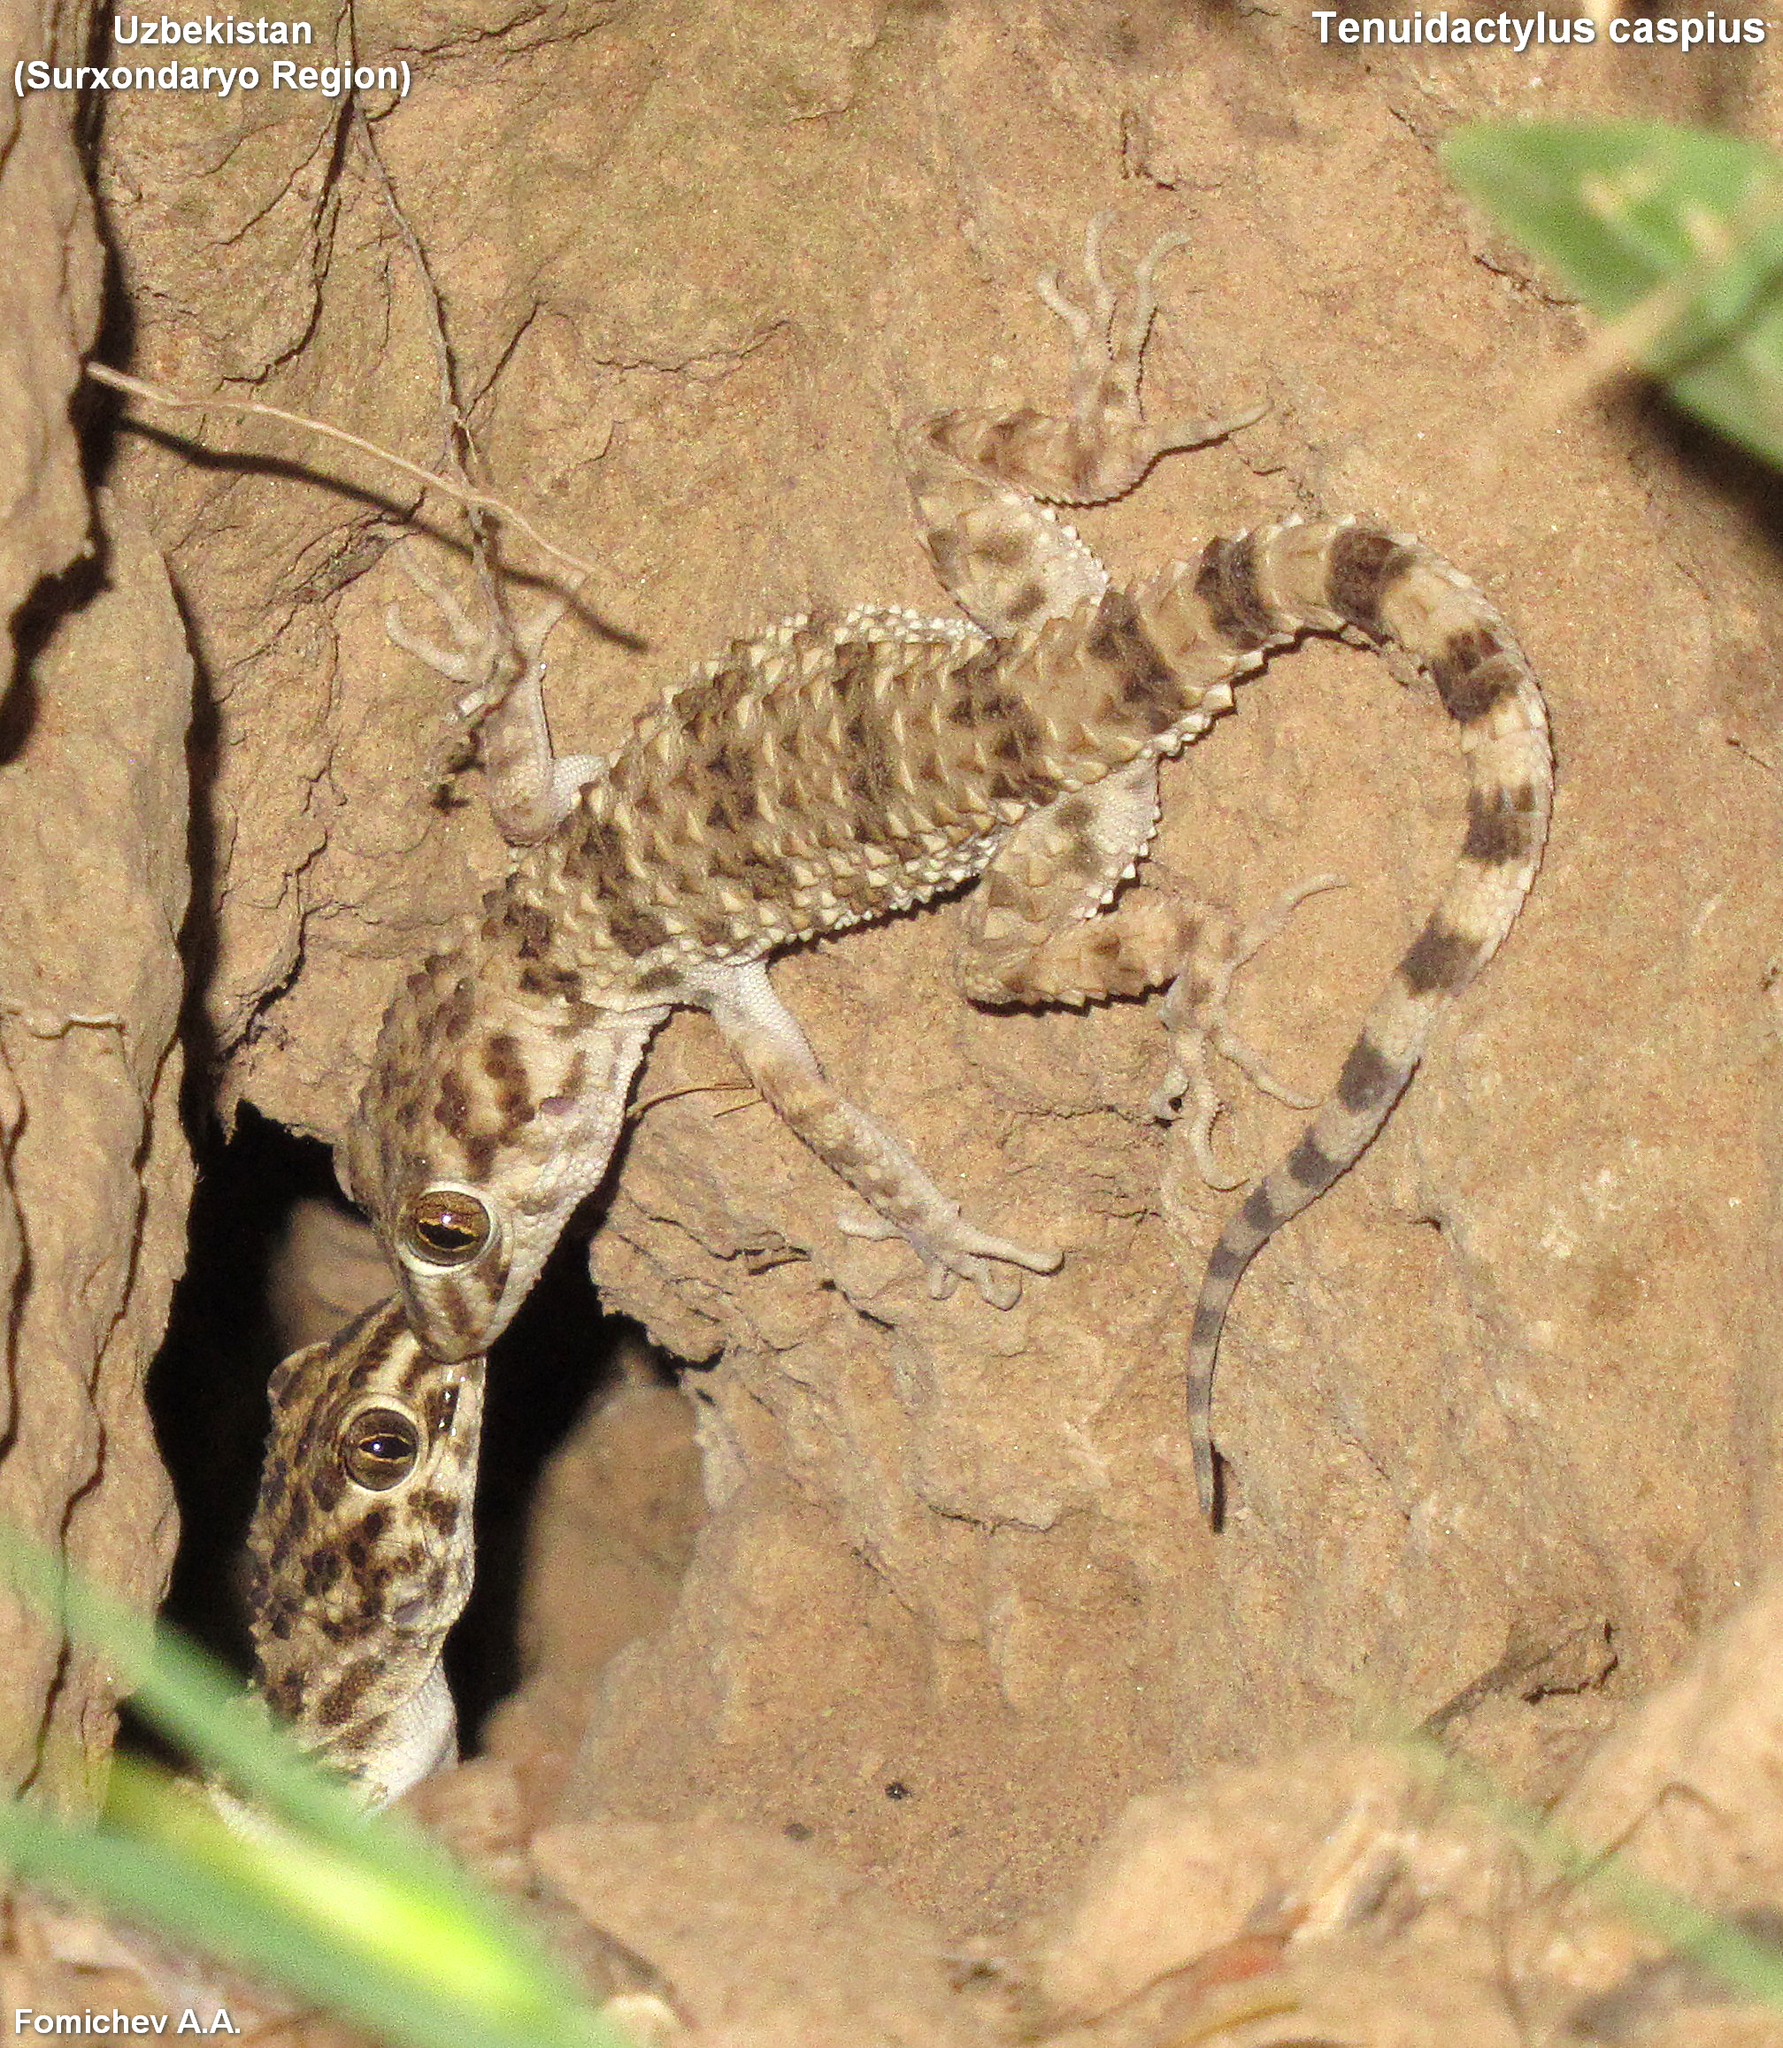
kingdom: Animalia
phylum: Chordata
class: Squamata
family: Gekkonidae
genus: Tenuidactylus
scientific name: Tenuidactylus caspius
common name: Caspian bent-toed gecko
